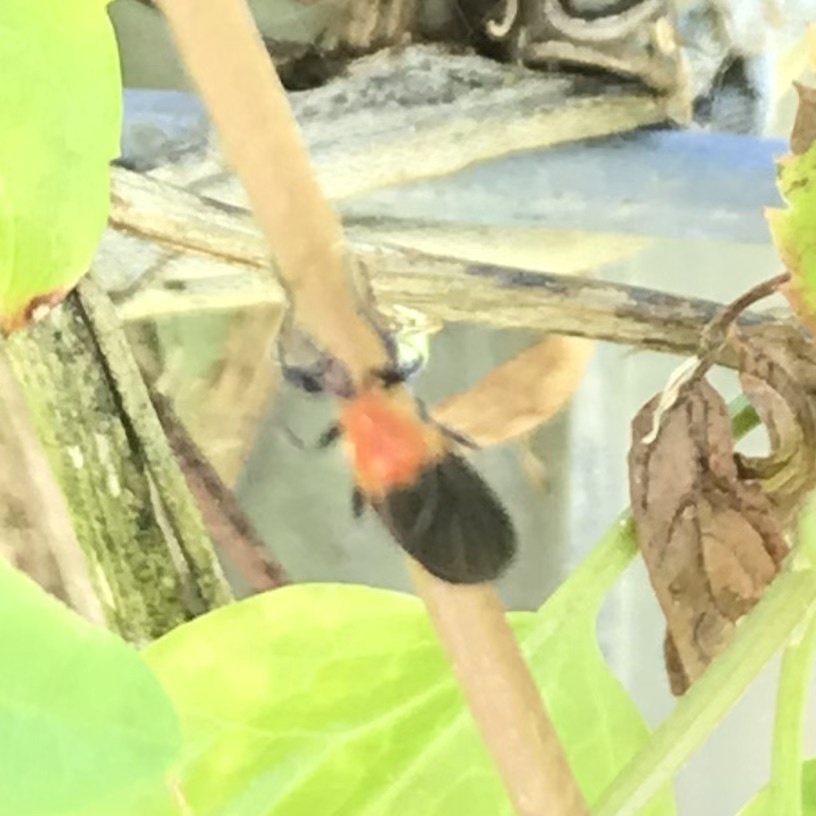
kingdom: Animalia
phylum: Arthropoda
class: Insecta
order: Diptera
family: Bibionidae
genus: Bibio
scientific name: Bibio imitator
